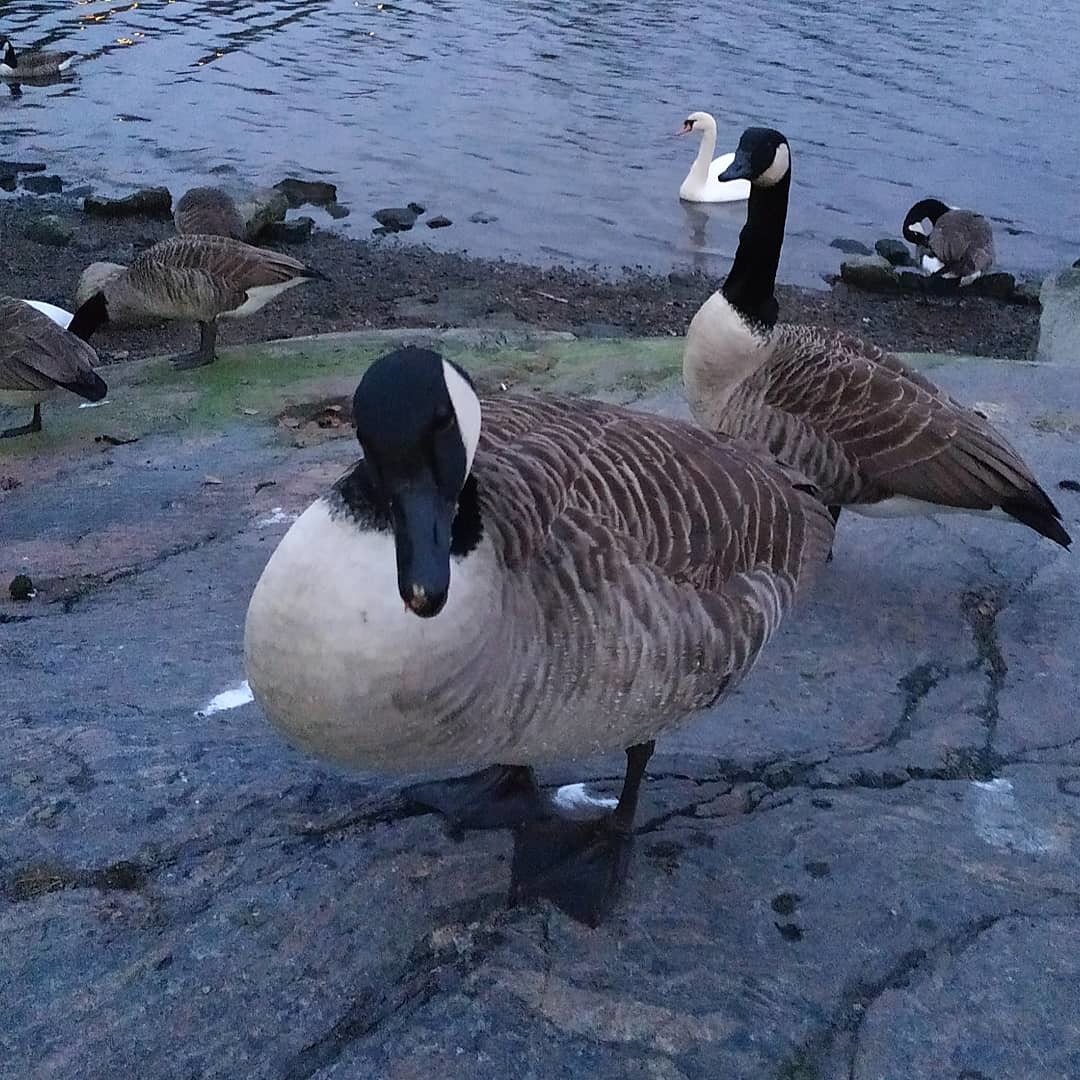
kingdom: Animalia
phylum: Chordata
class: Aves
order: Anseriformes
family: Anatidae
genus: Branta
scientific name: Branta canadensis
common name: Canada goose
